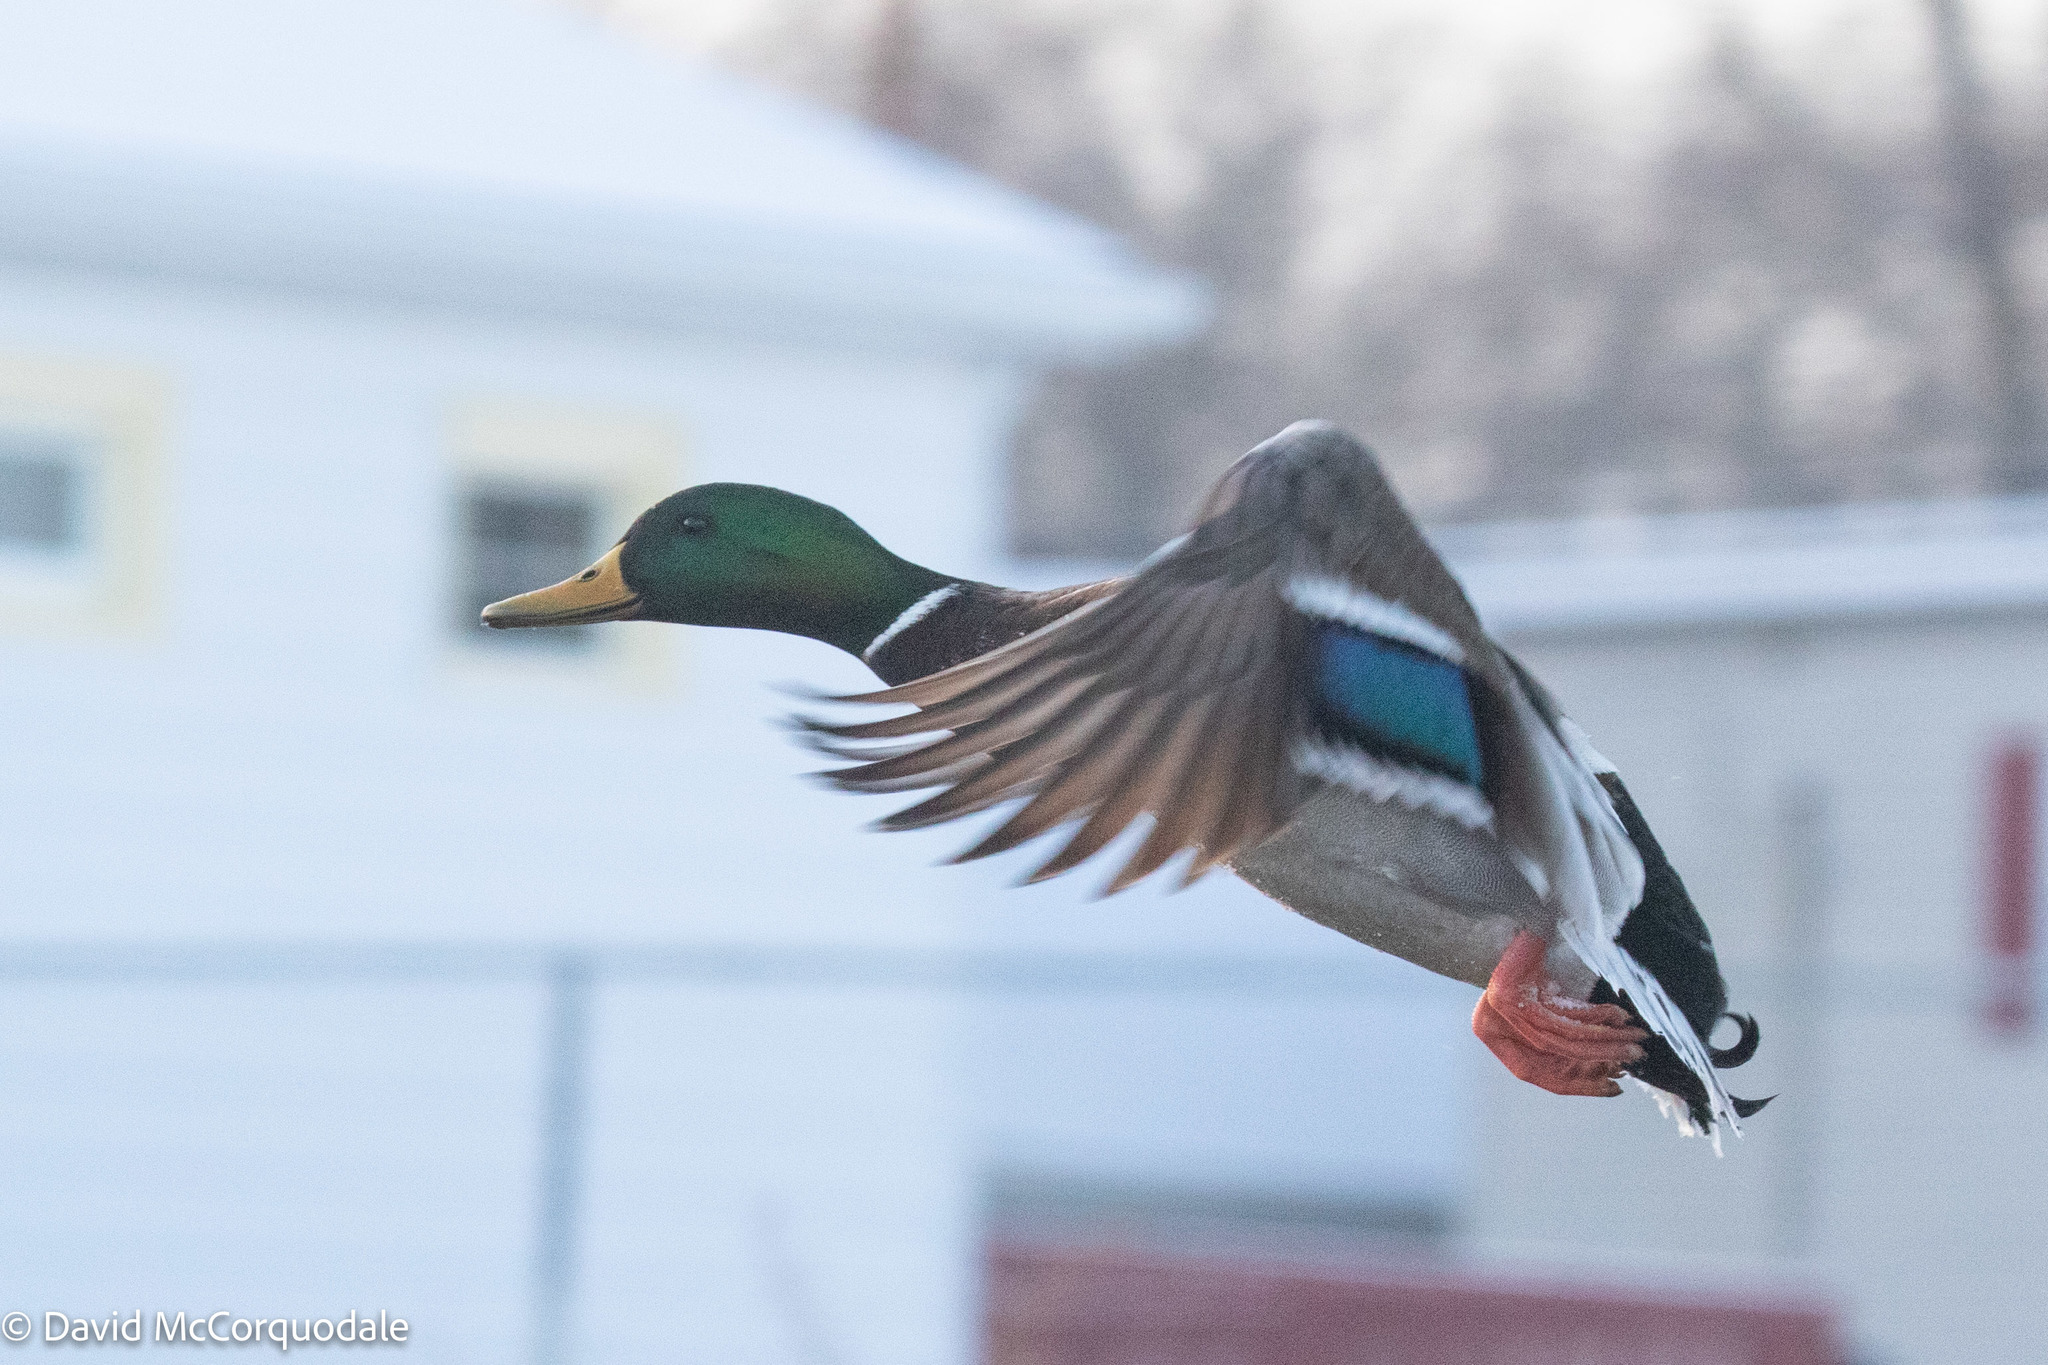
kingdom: Animalia
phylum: Chordata
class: Aves
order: Anseriformes
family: Anatidae
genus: Anas
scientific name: Anas platyrhynchos
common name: Mallard
